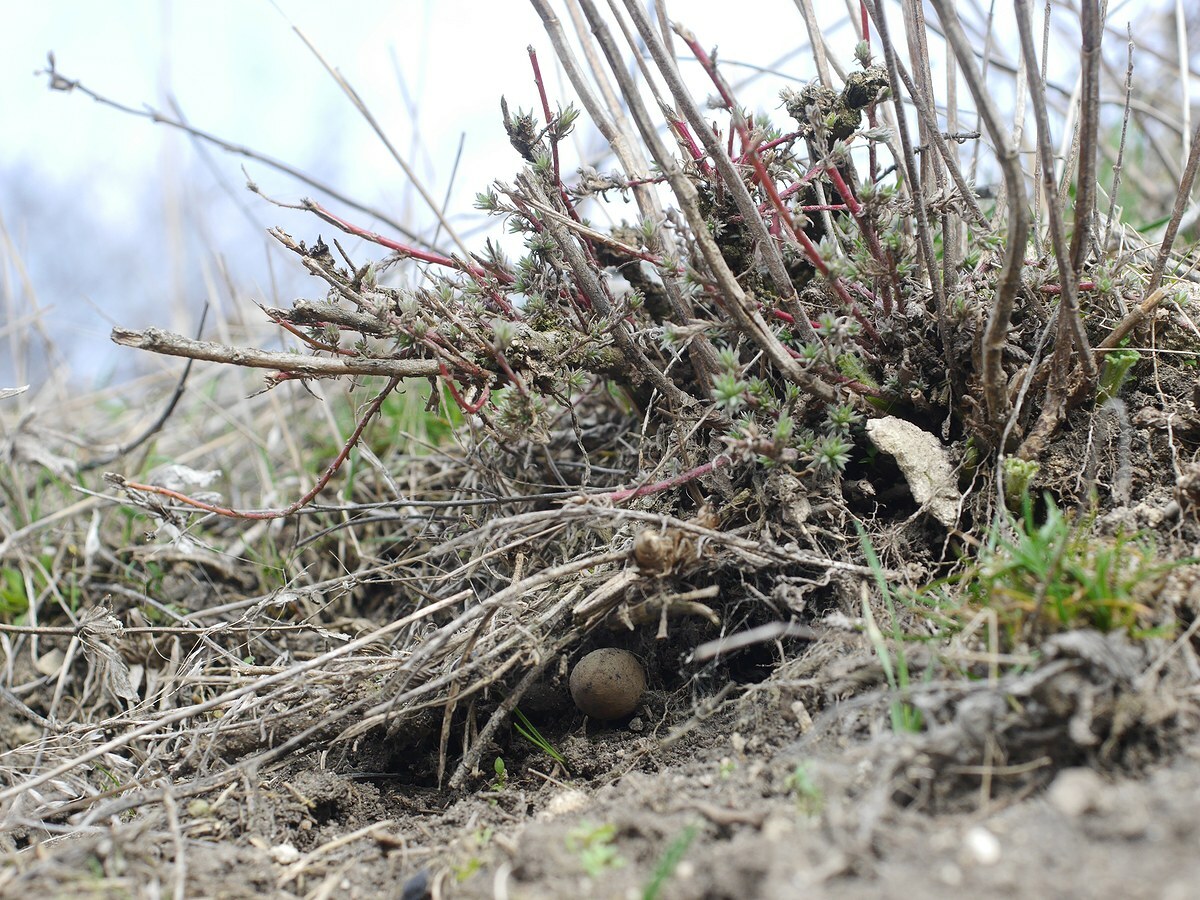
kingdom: Animalia
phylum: Arthropoda
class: Arachnida
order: Araneae
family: Theridiidae
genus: Latrodectus
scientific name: Latrodectus tredecimguttatus
